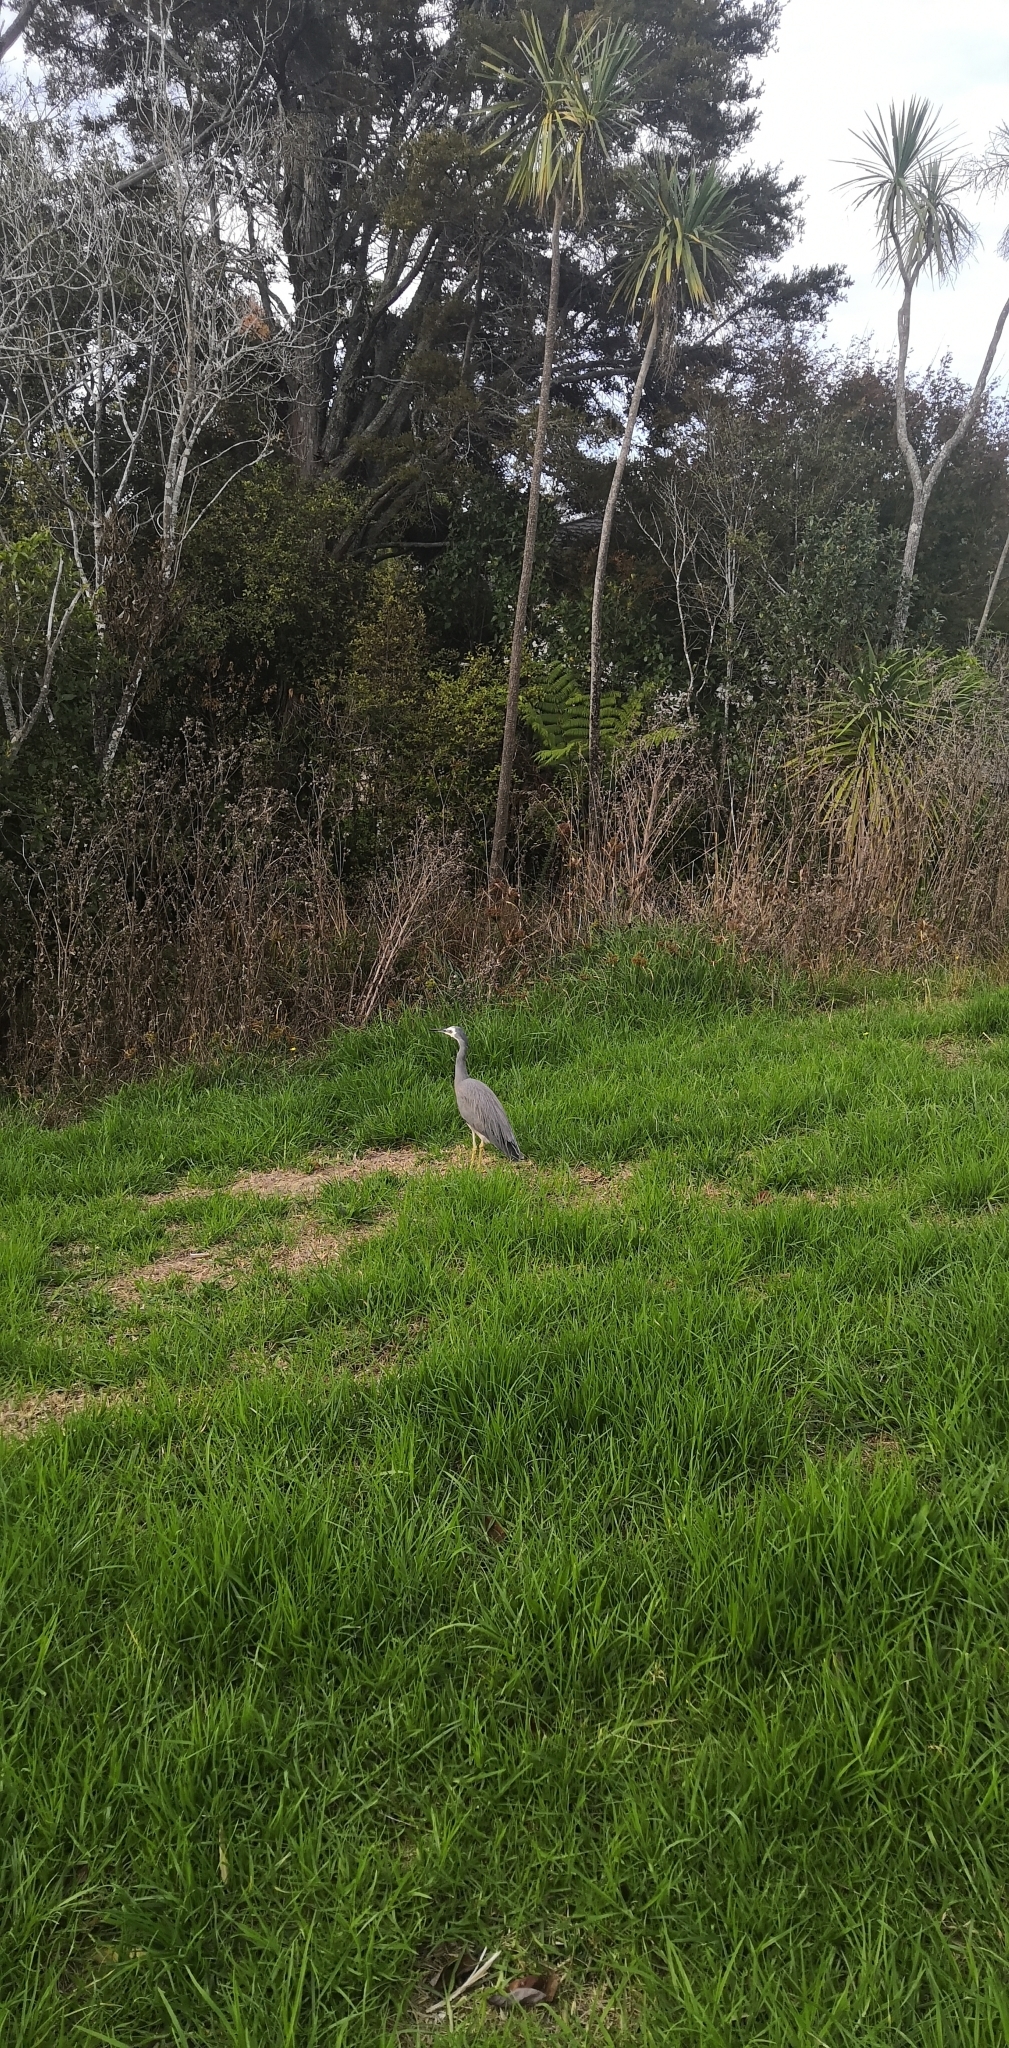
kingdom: Animalia
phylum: Chordata
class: Aves
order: Pelecaniformes
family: Ardeidae
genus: Egretta
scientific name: Egretta novaehollandiae
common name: White-faced heron
